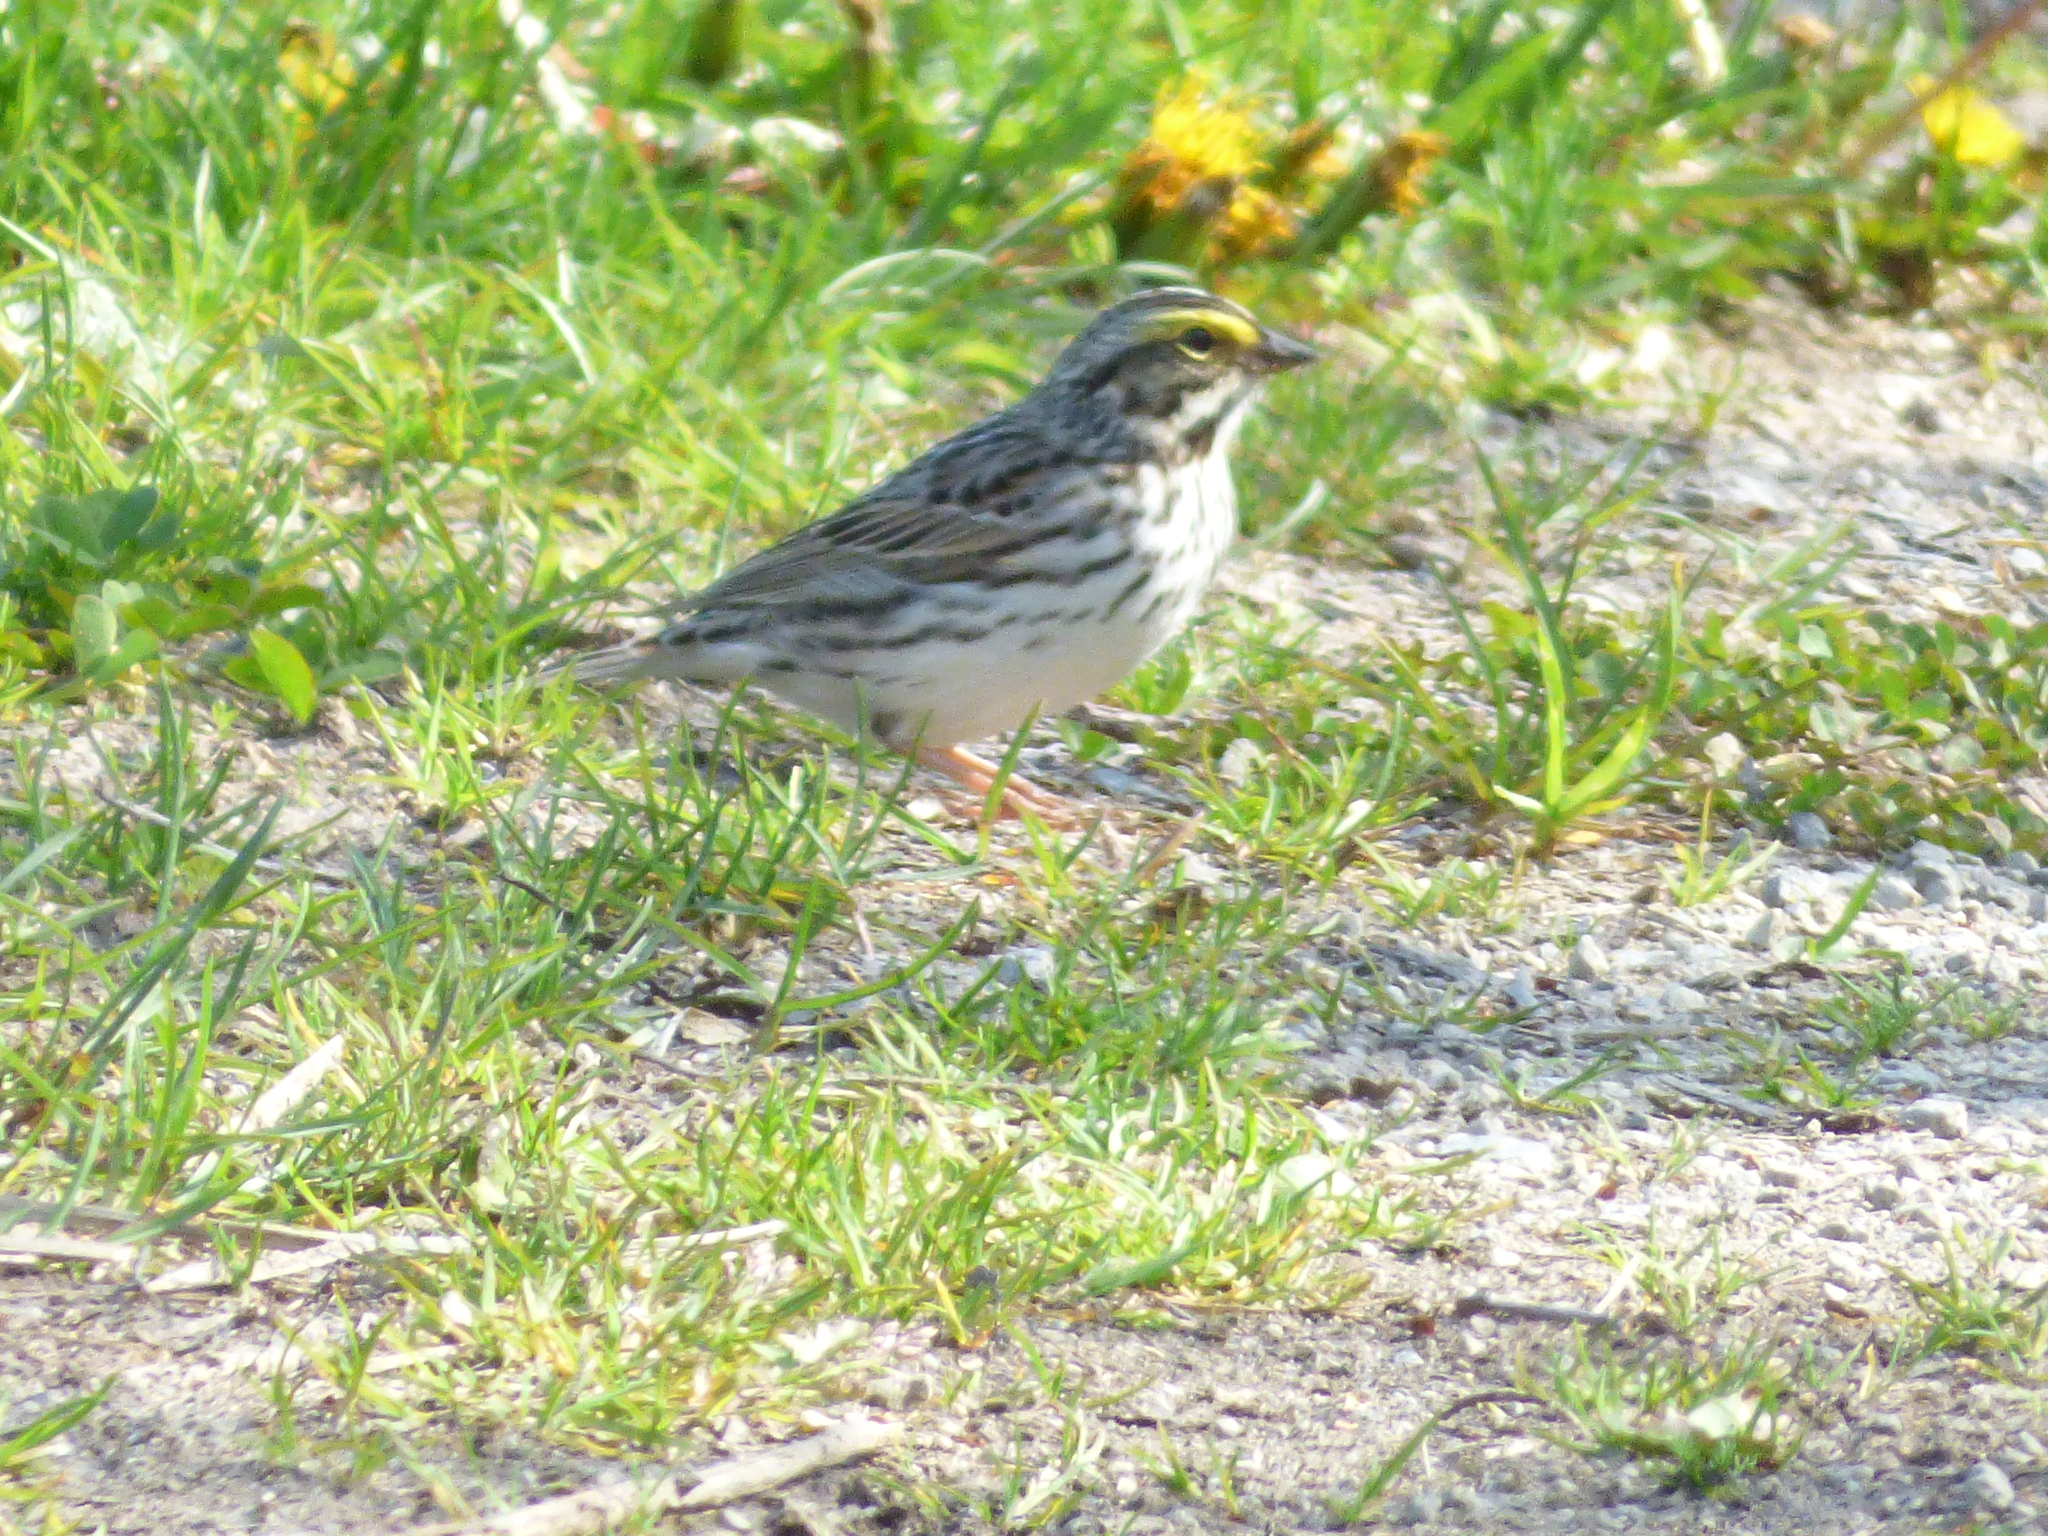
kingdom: Animalia
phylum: Chordata
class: Aves
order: Passeriformes
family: Passerellidae
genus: Passerculus
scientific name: Passerculus sandwichensis
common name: Savannah sparrow
